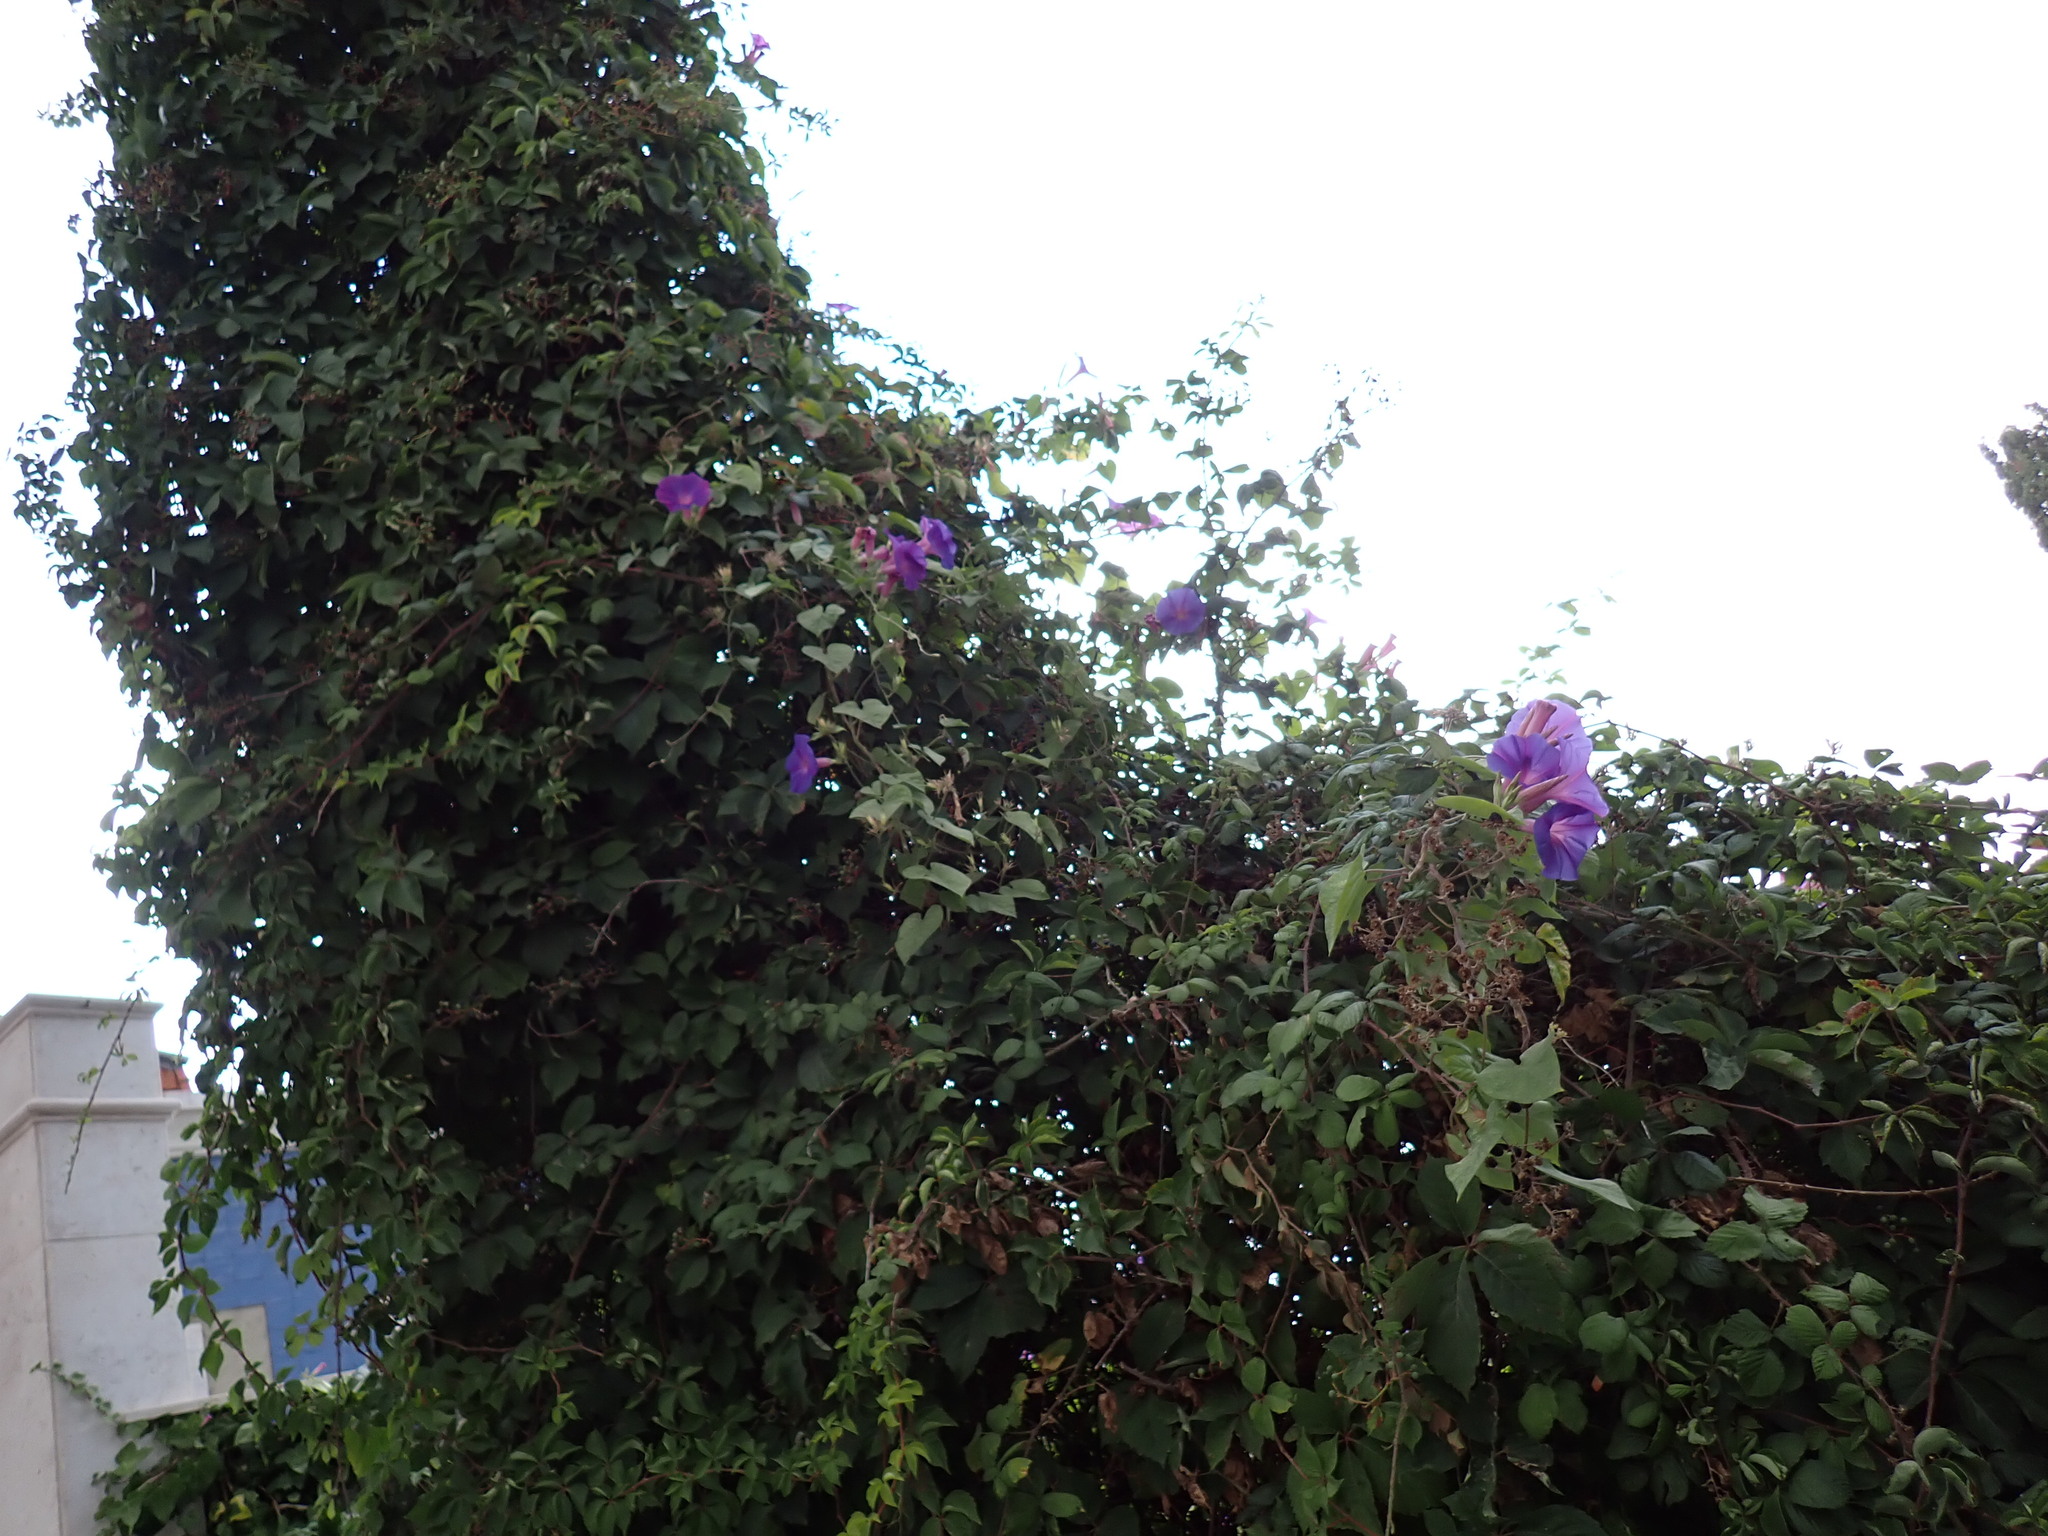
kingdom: Plantae
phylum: Tracheophyta
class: Magnoliopsida
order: Solanales
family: Convolvulaceae
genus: Ipomoea
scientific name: Ipomoea indica
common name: Blue dawnflower
